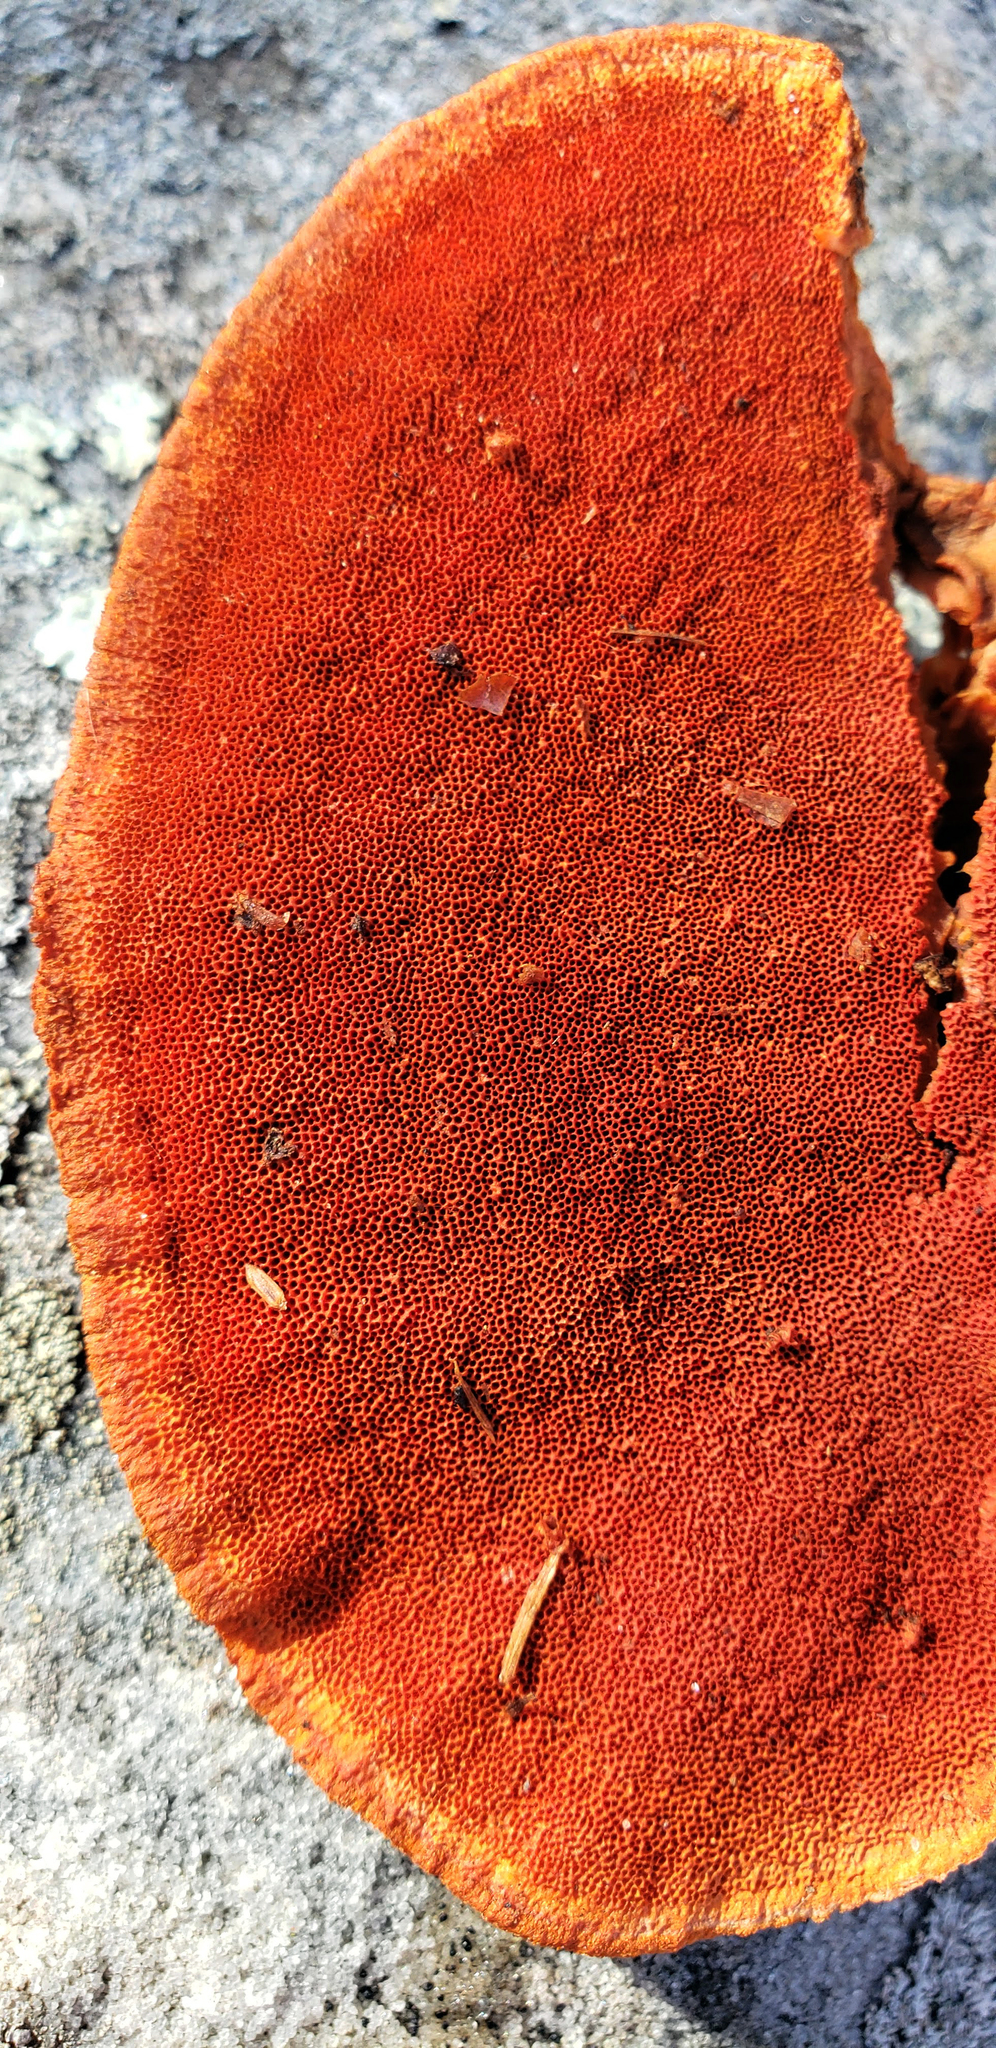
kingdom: Fungi
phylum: Basidiomycota
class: Agaricomycetes
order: Polyporales
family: Polyporaceae
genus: Trametes
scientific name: Trametes cinnabarina
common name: Northern cinnabar polypore
